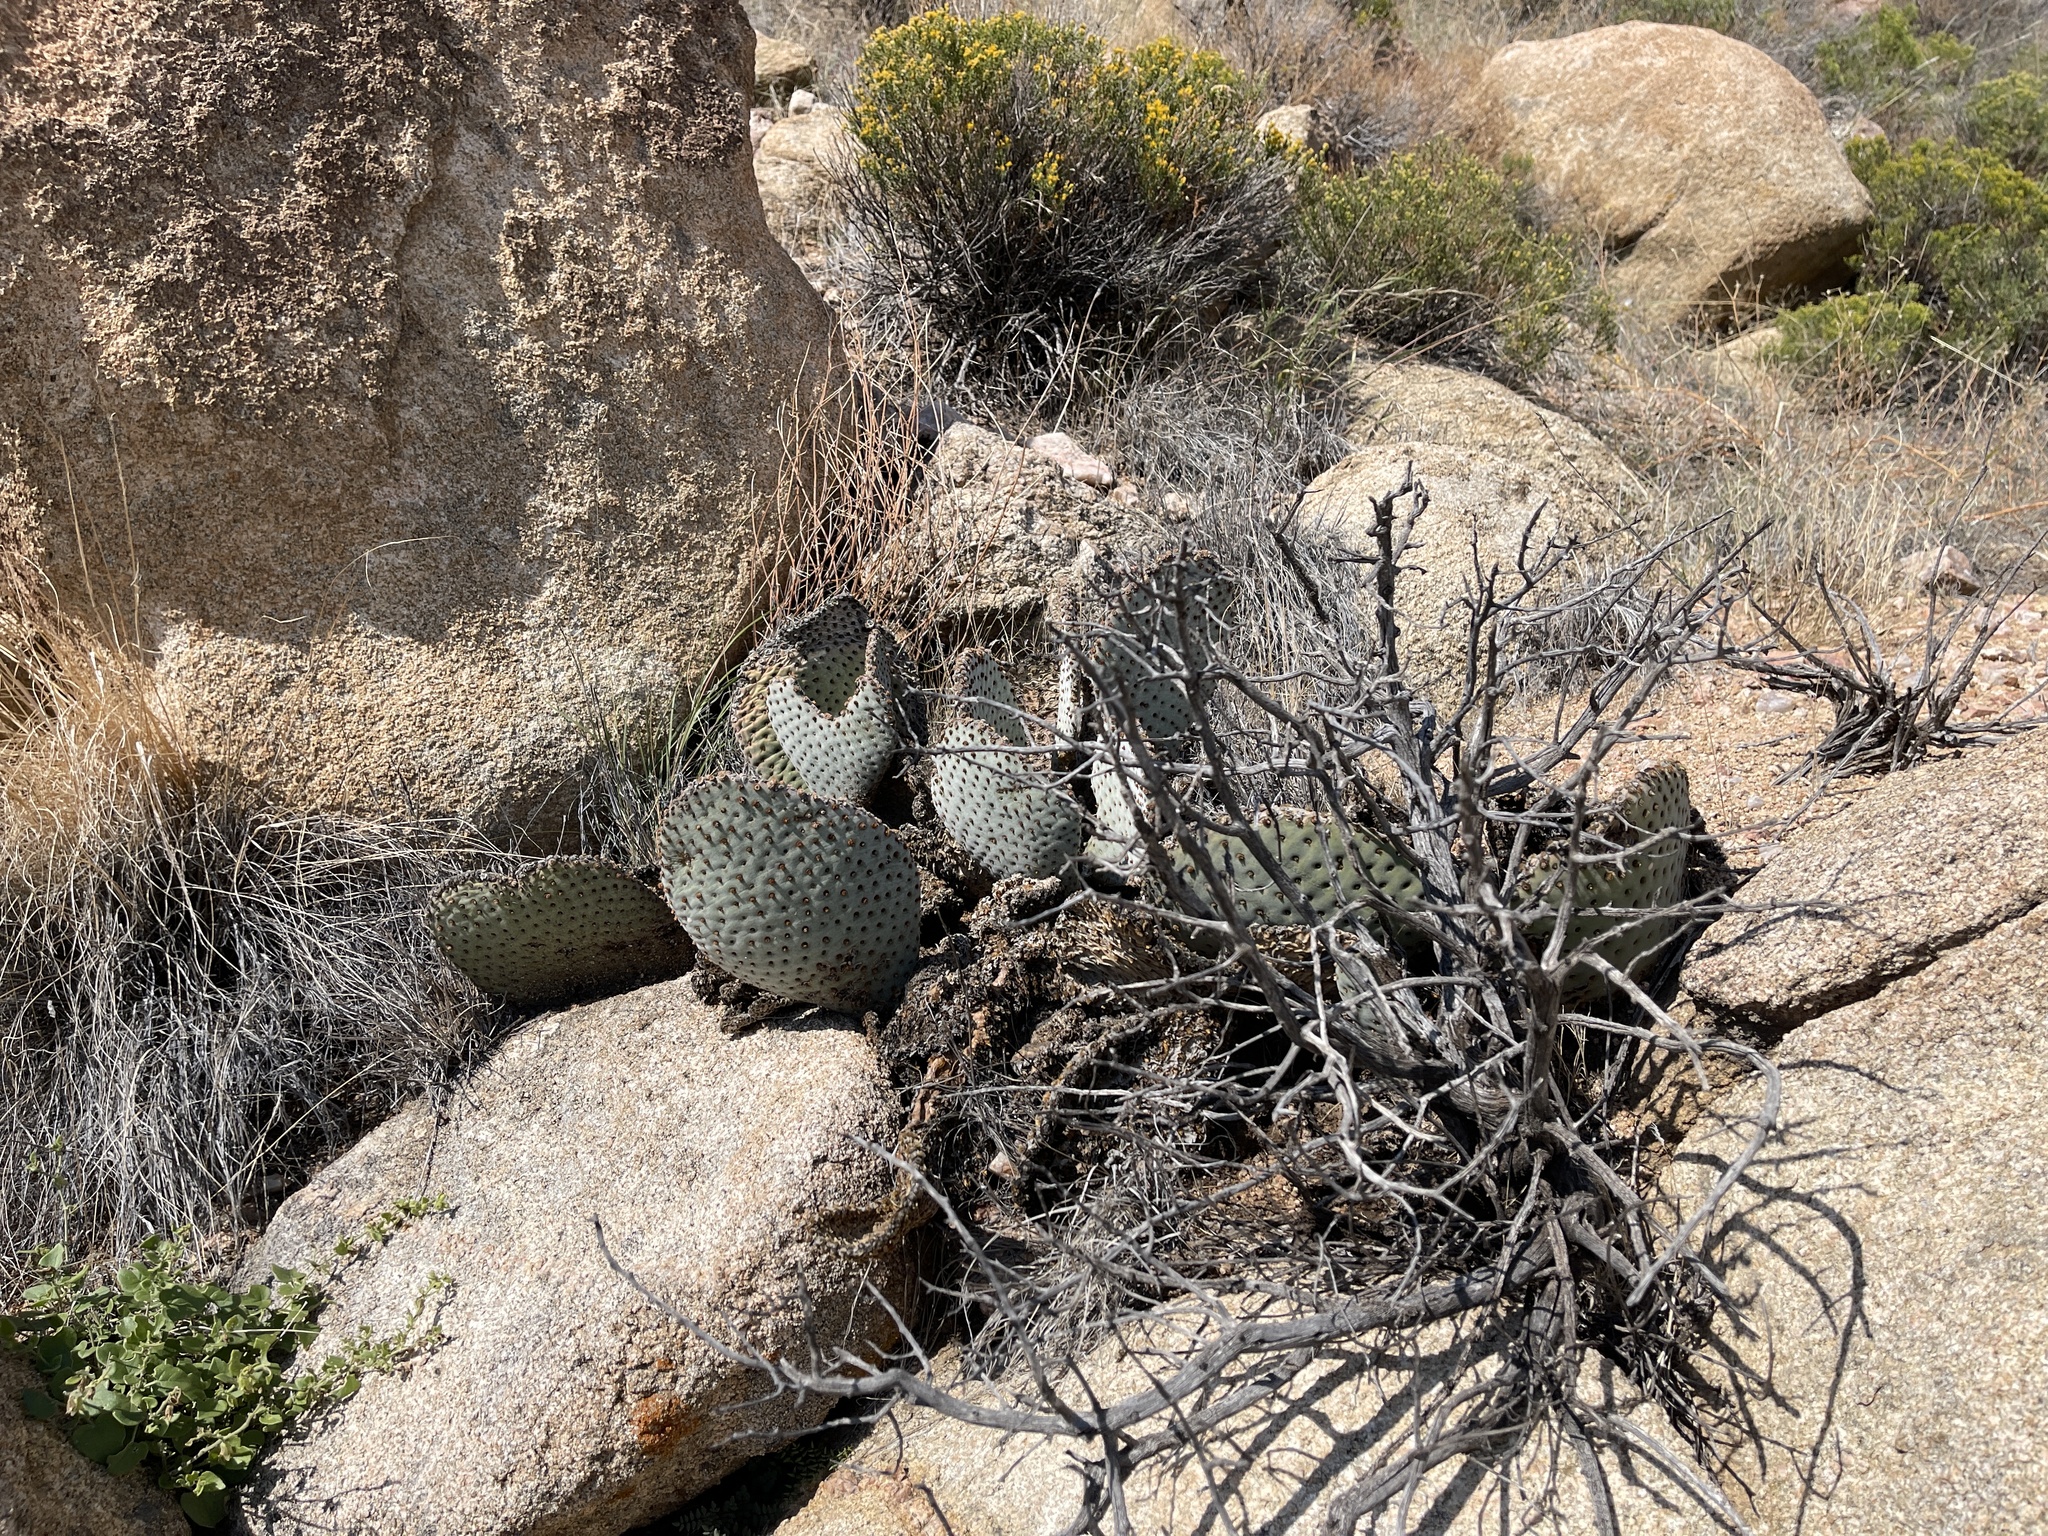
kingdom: Plantae
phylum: Tracheophyta
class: Magnoliopsida
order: Caryophyllales
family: Cactaceae
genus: Opuntia
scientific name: Opuntia basilaris
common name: Beavertail prickly-pear
